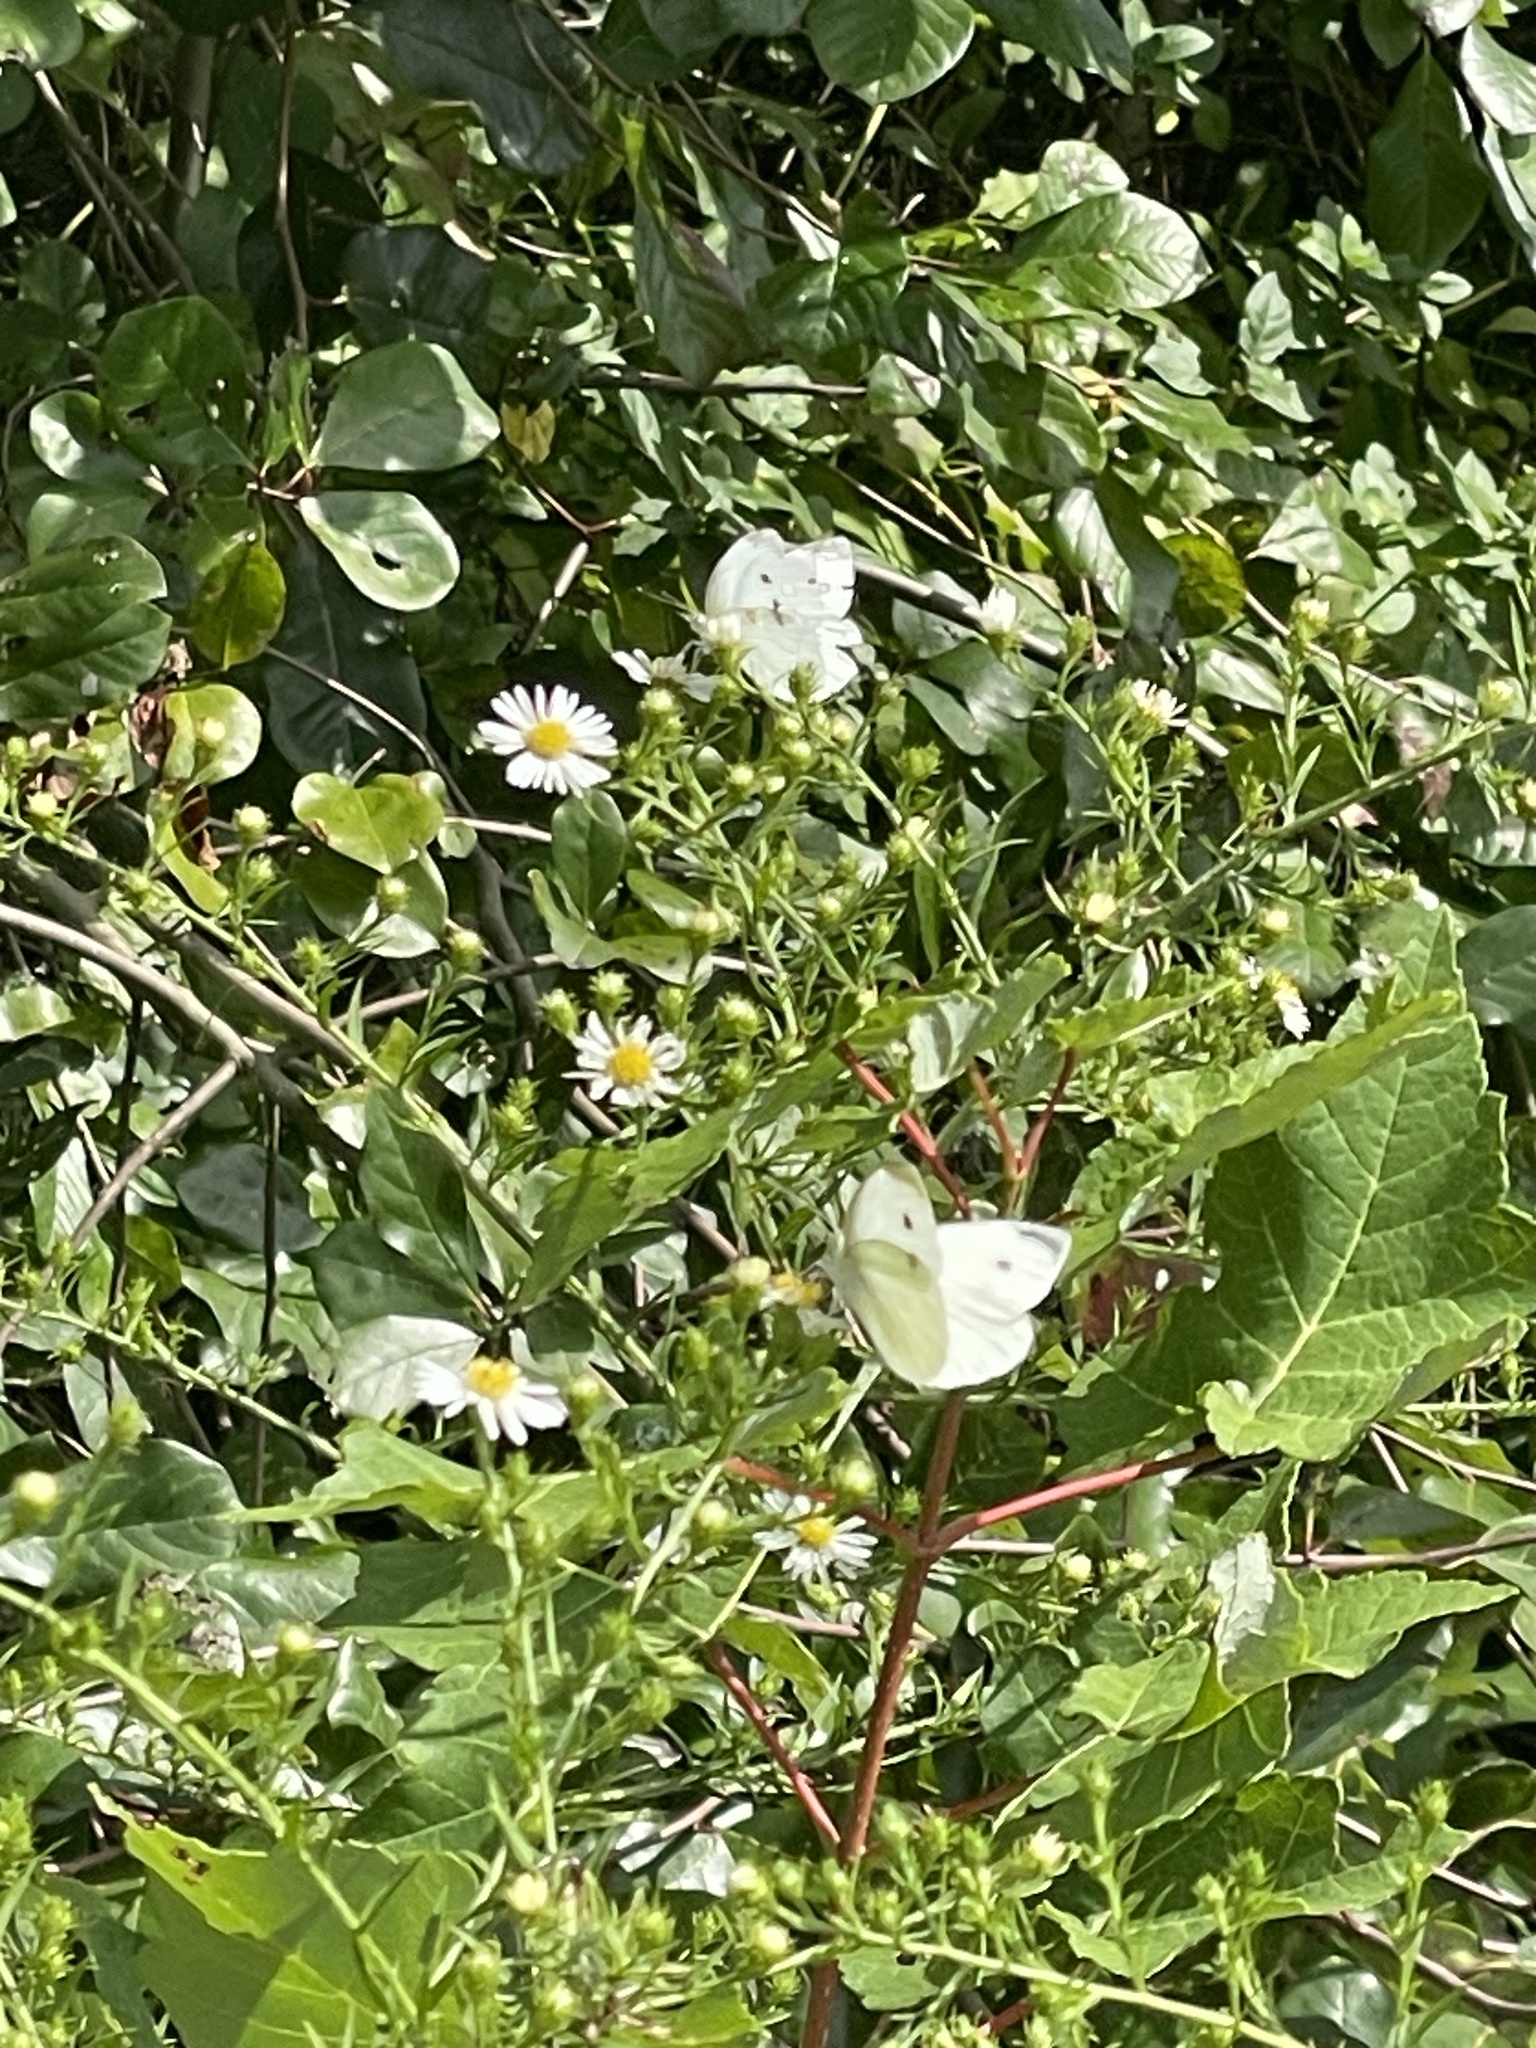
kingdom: Animalia
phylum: Arthropoda
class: Insecta
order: Lepidoptera
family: Pieridae
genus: Pieris
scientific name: Pieris rapae
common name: Small white
